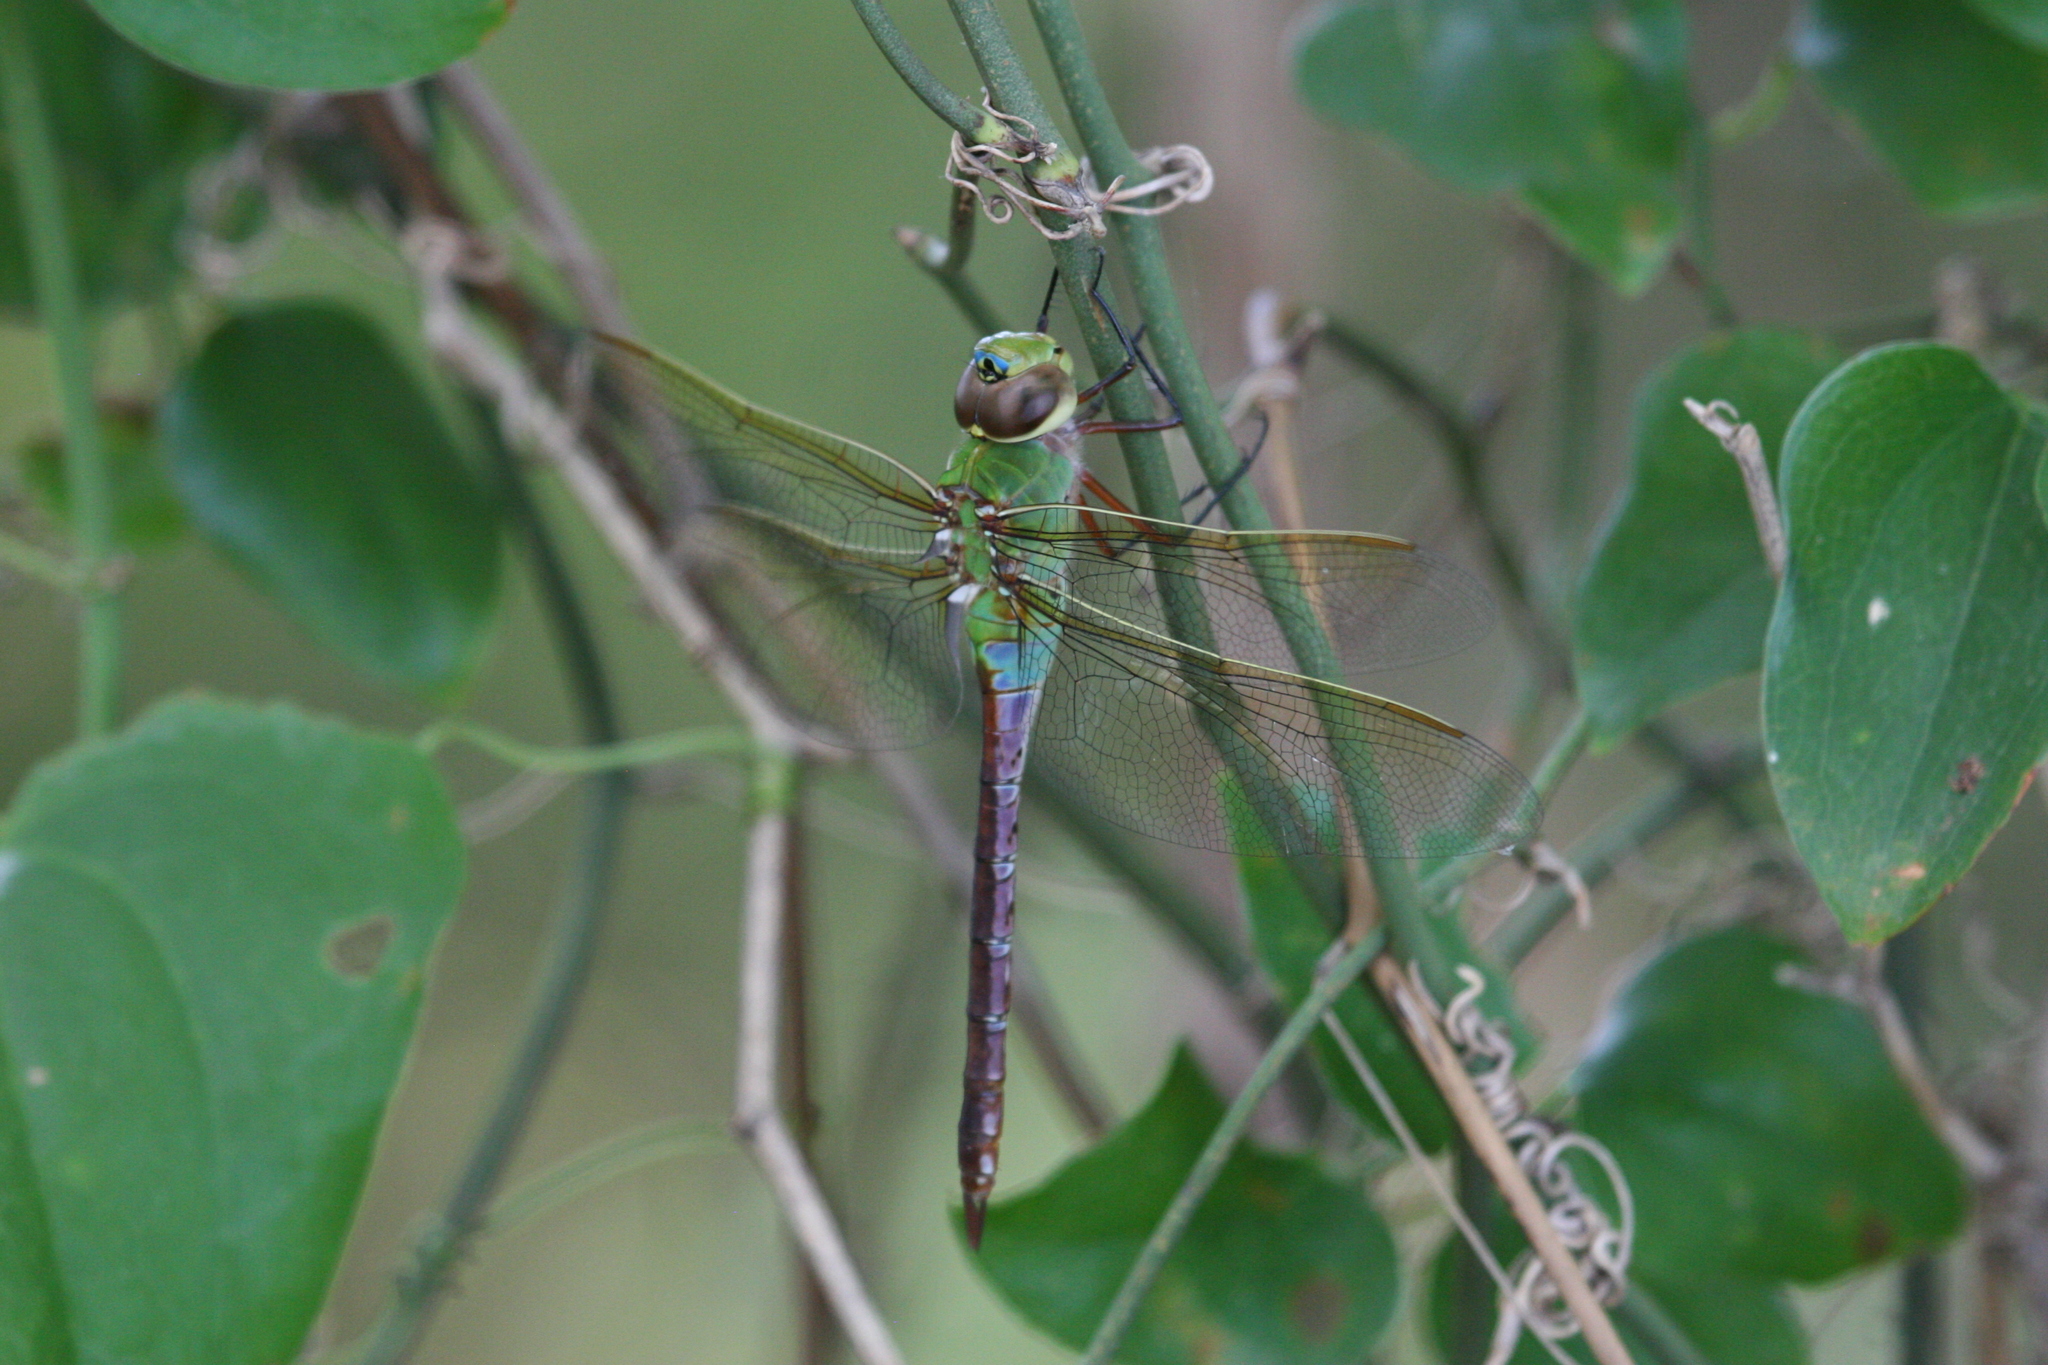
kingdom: Animalia
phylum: Arthropoda
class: Insecta
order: Odonata
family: Aeshnidae
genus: Anax
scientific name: Anax junius
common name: Common green darner
